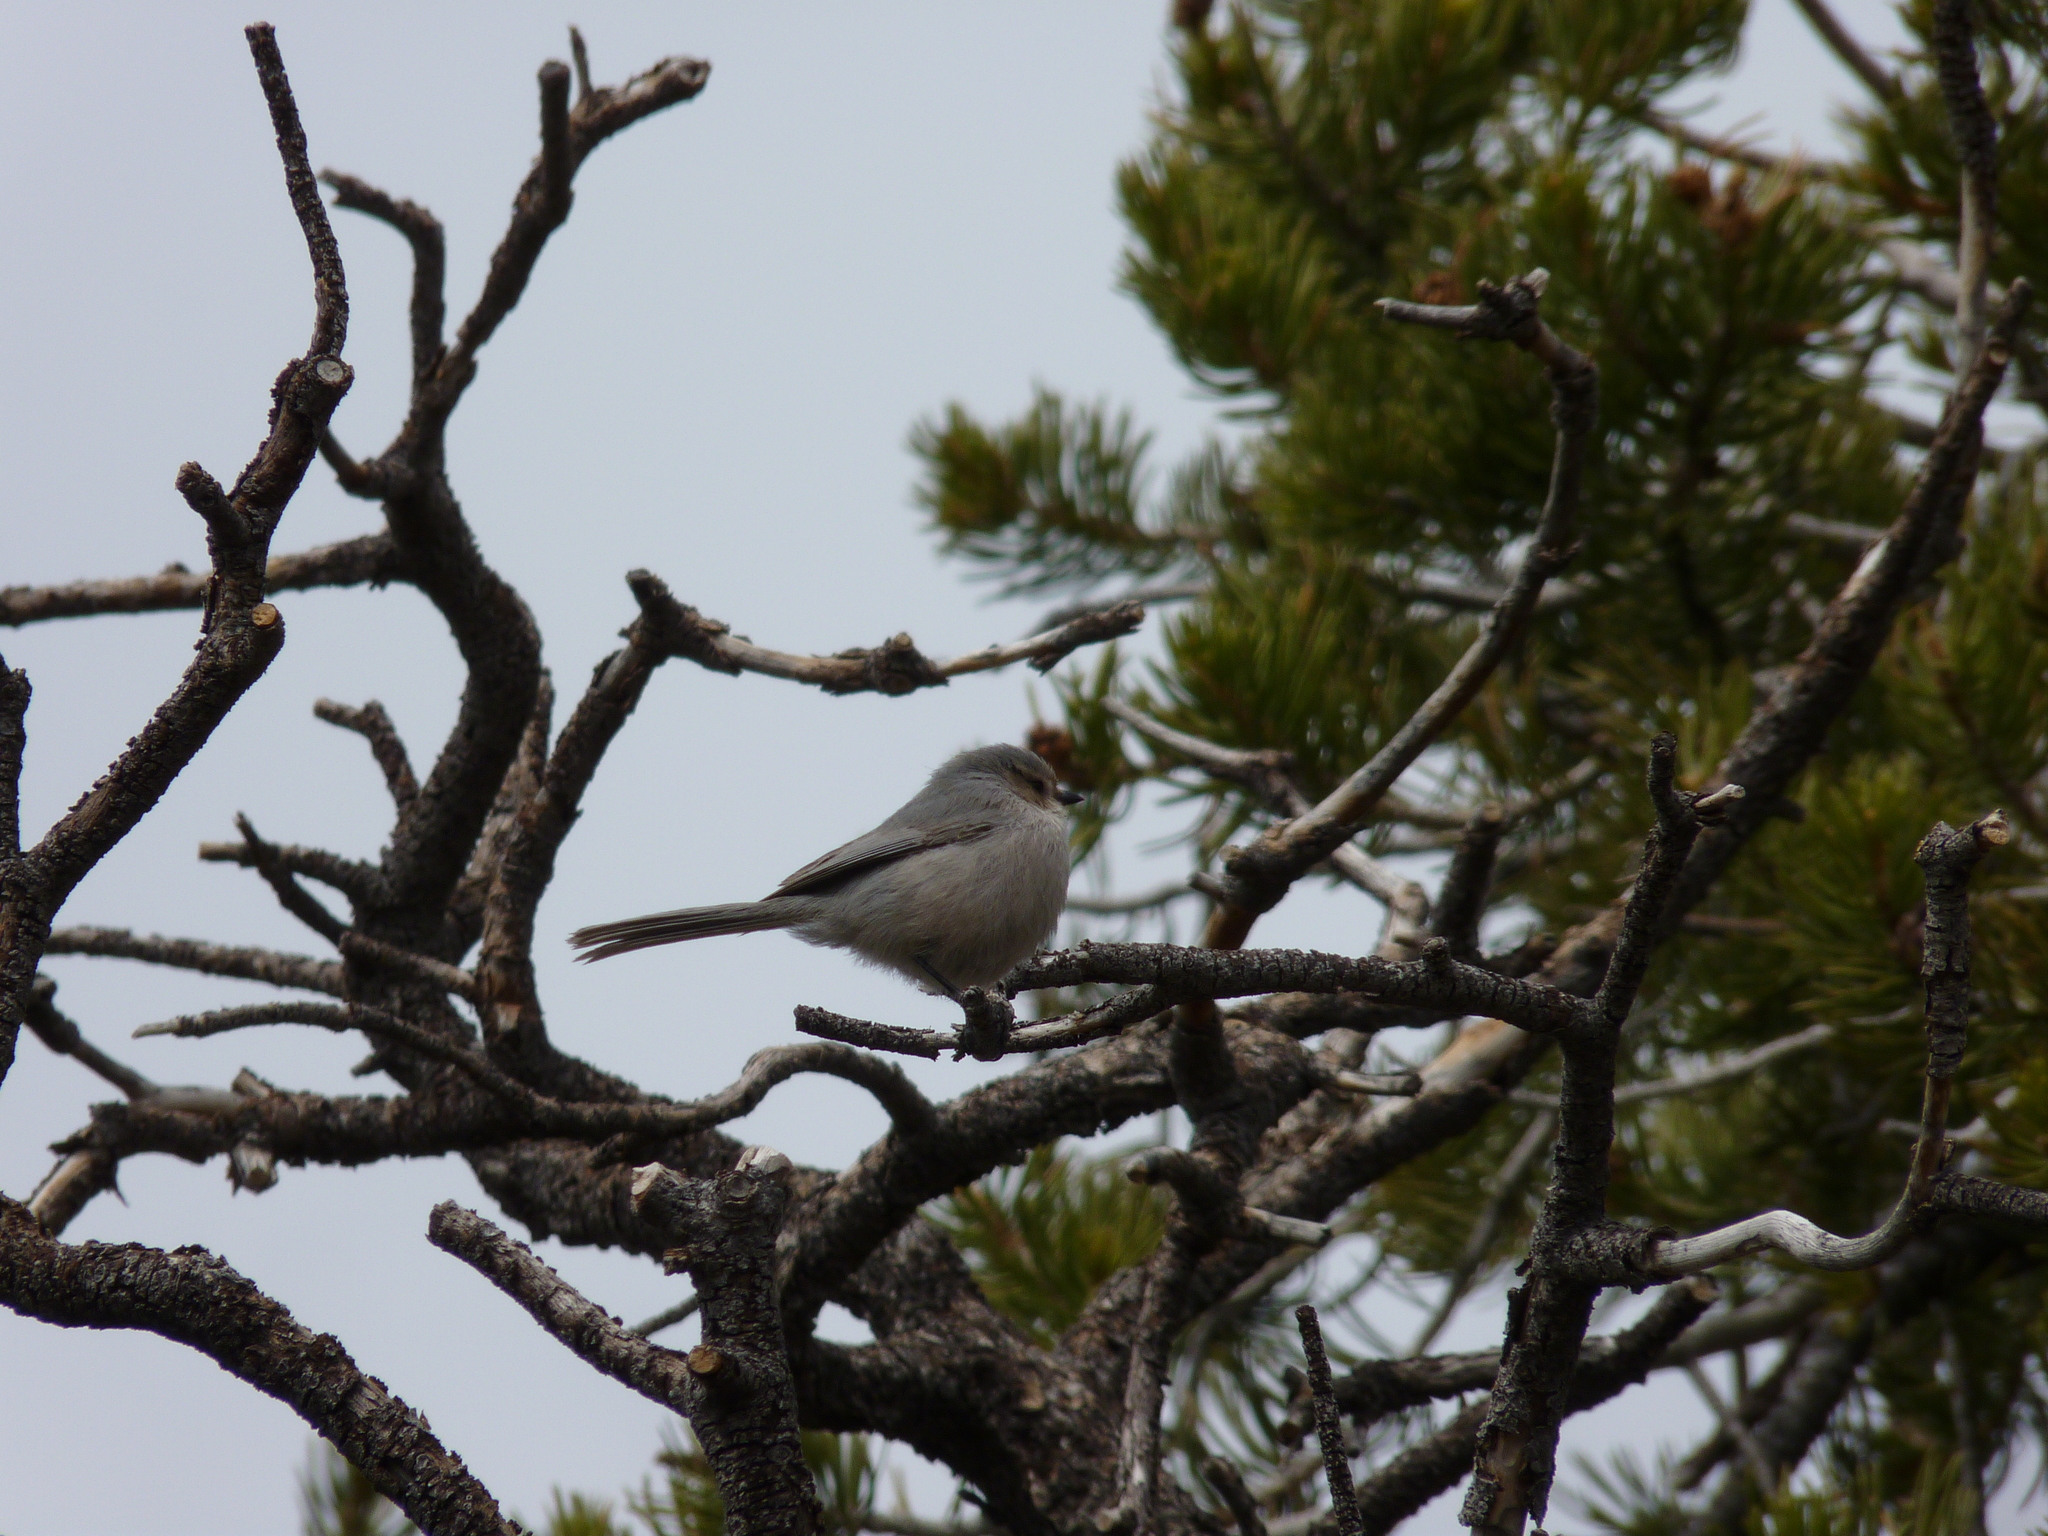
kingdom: Animalia
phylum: Chordata
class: Aves
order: Passeriformes
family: Aegithalidae
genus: Psaltriparus
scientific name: Psaltriparus minimus
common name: American bushtit
